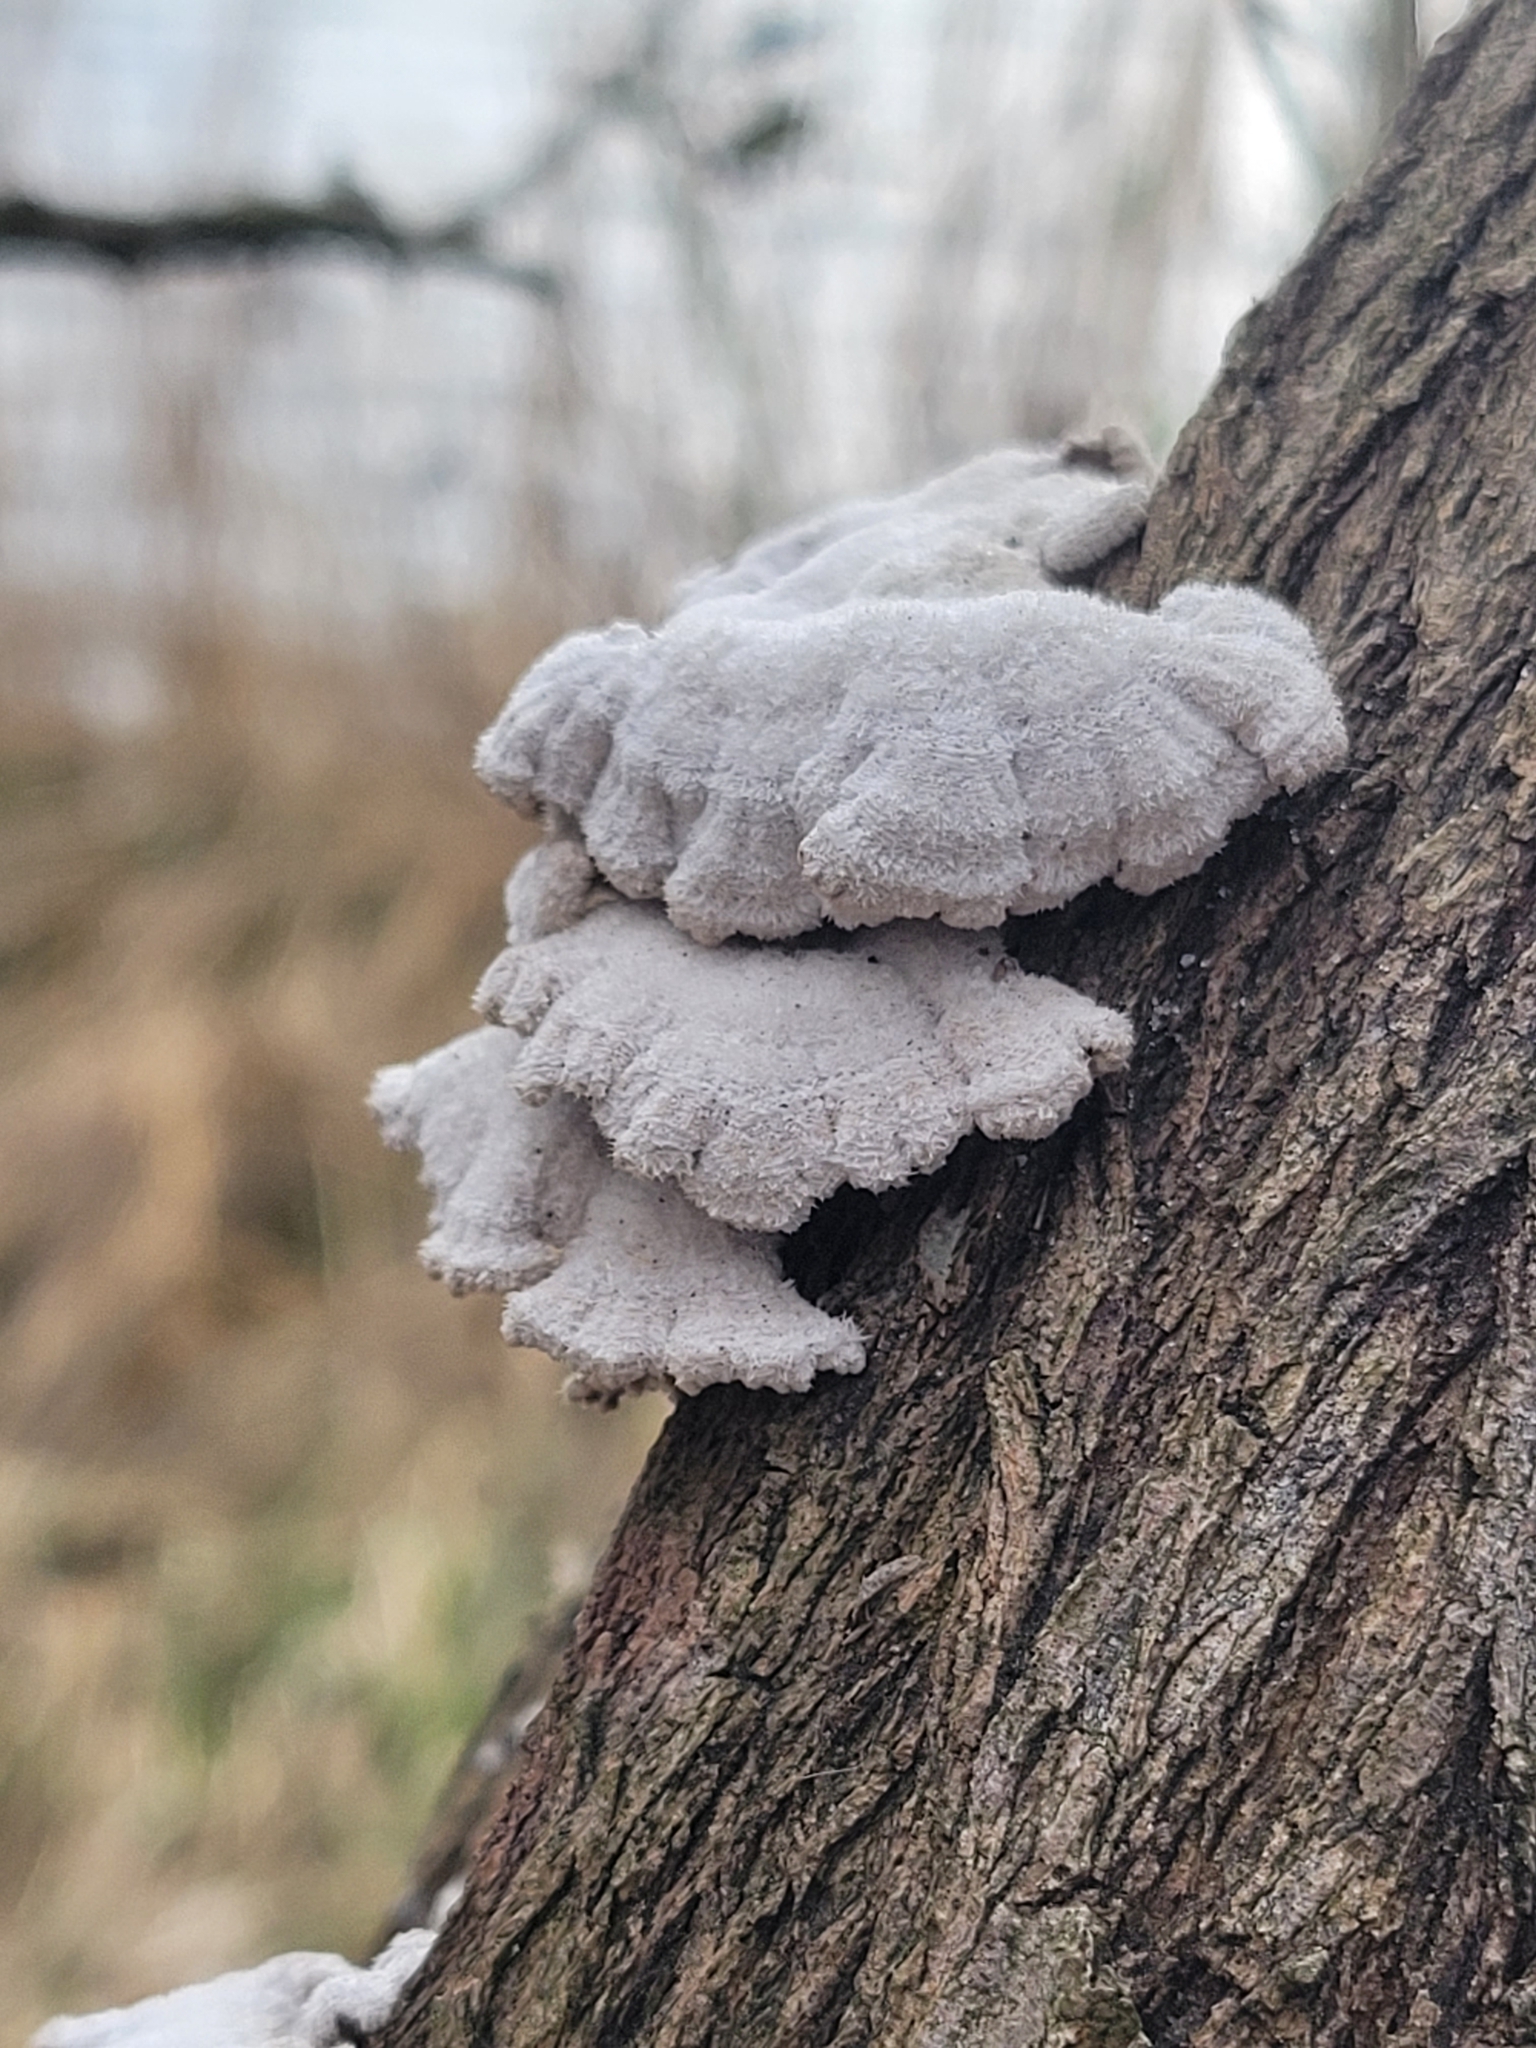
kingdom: Fungi
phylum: Basidiomycota
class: Agaricomycetes
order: Agaricales
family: Schizophyllaceae
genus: Schizophyllum
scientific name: Schizophyllum commune
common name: Common porecrust
